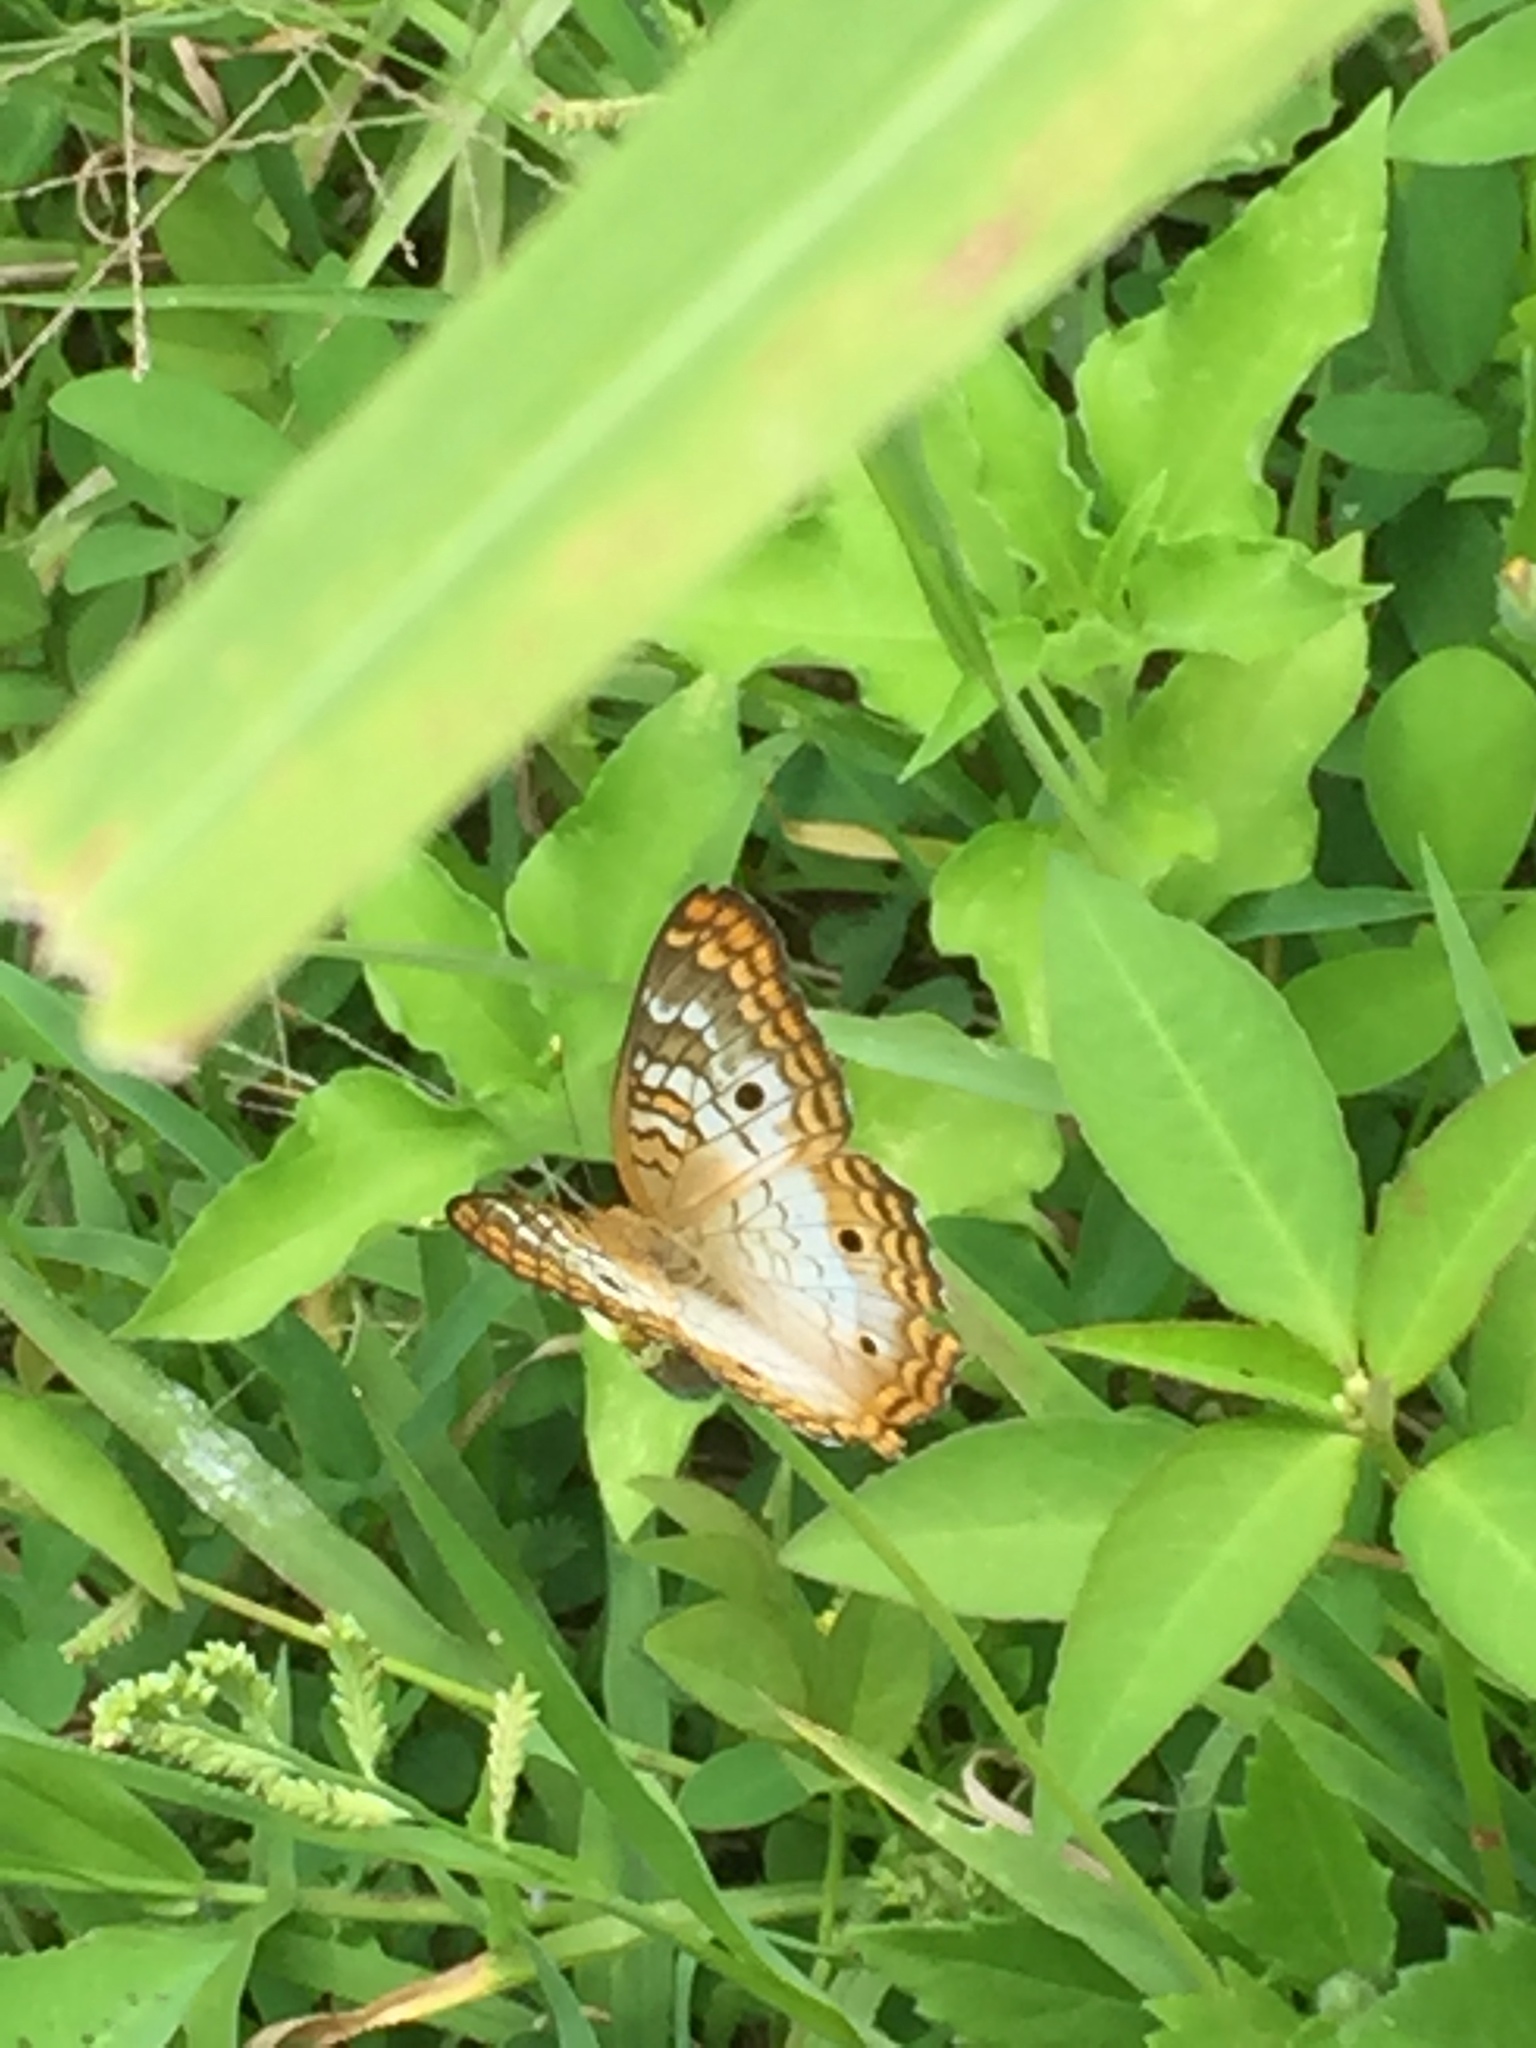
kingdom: Animalia
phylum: Arthropoda
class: Insecta
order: Lepidoptera
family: Nymphalidae
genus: Anartia
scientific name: Anartia jatrophae
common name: White peacock
